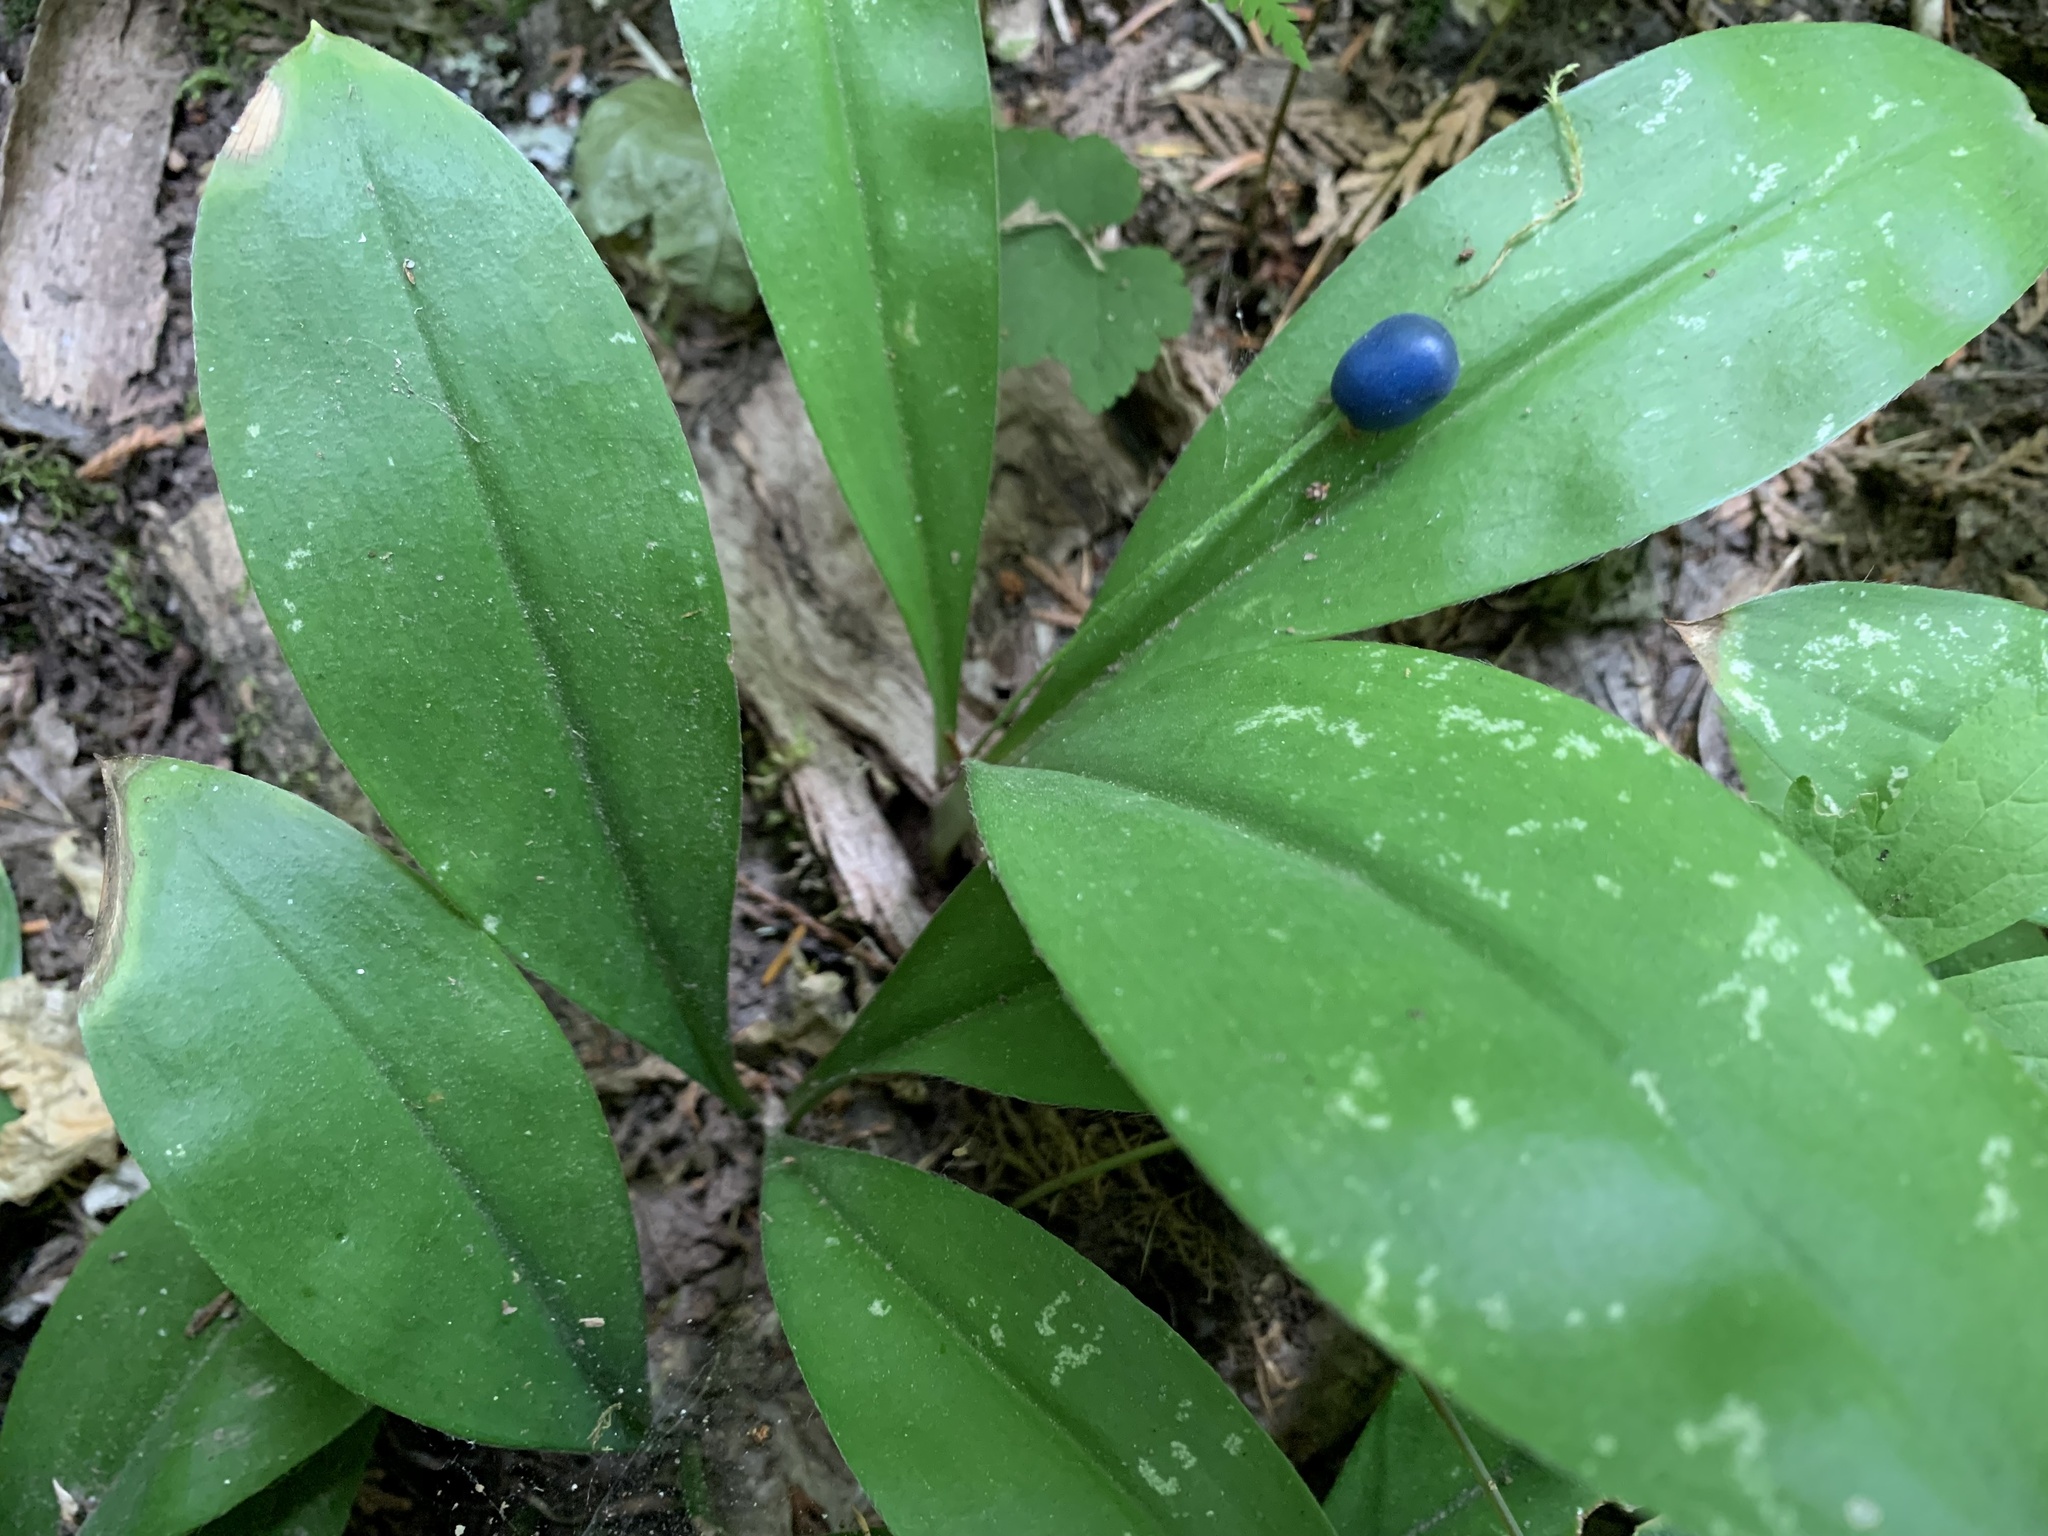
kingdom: Plantae
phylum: Tracheophyta
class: Liliopsida
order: Liliales
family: Liliaceae
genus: Clintonia
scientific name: Clintonia uniflora
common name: Queen's cup
